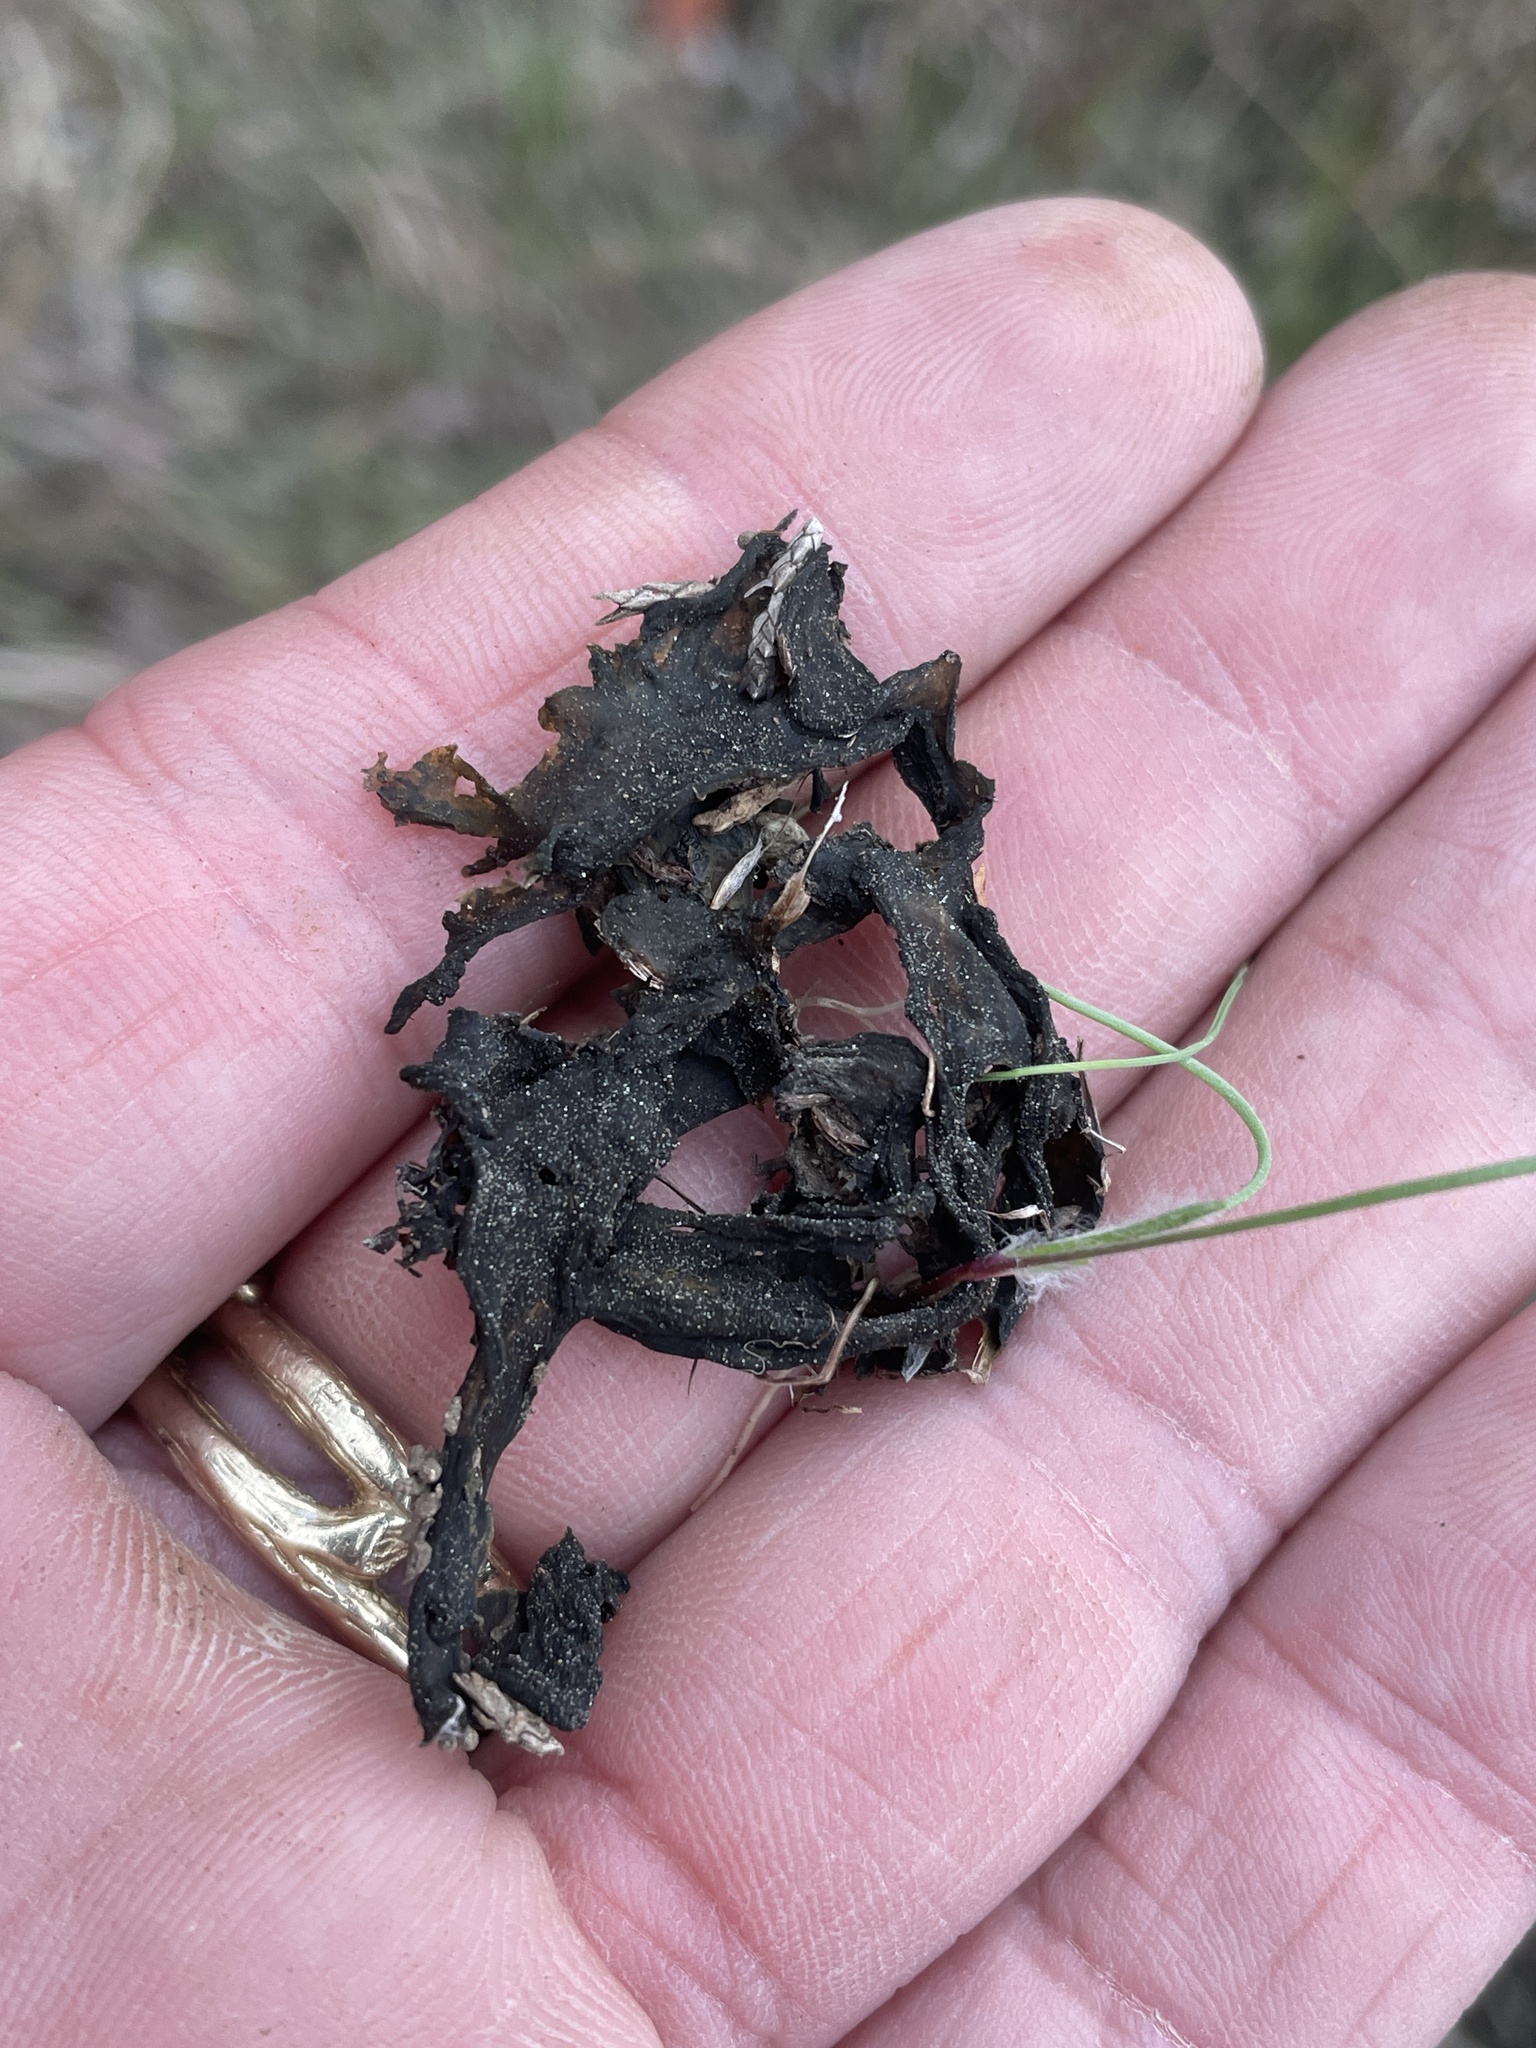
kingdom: Bacteria
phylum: Cyanobacteria
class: Cyanobacteriia
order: Cyanobacteriales
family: Nostocaceae
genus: Nostoc
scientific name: Nostoc commune
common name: Star jelly
